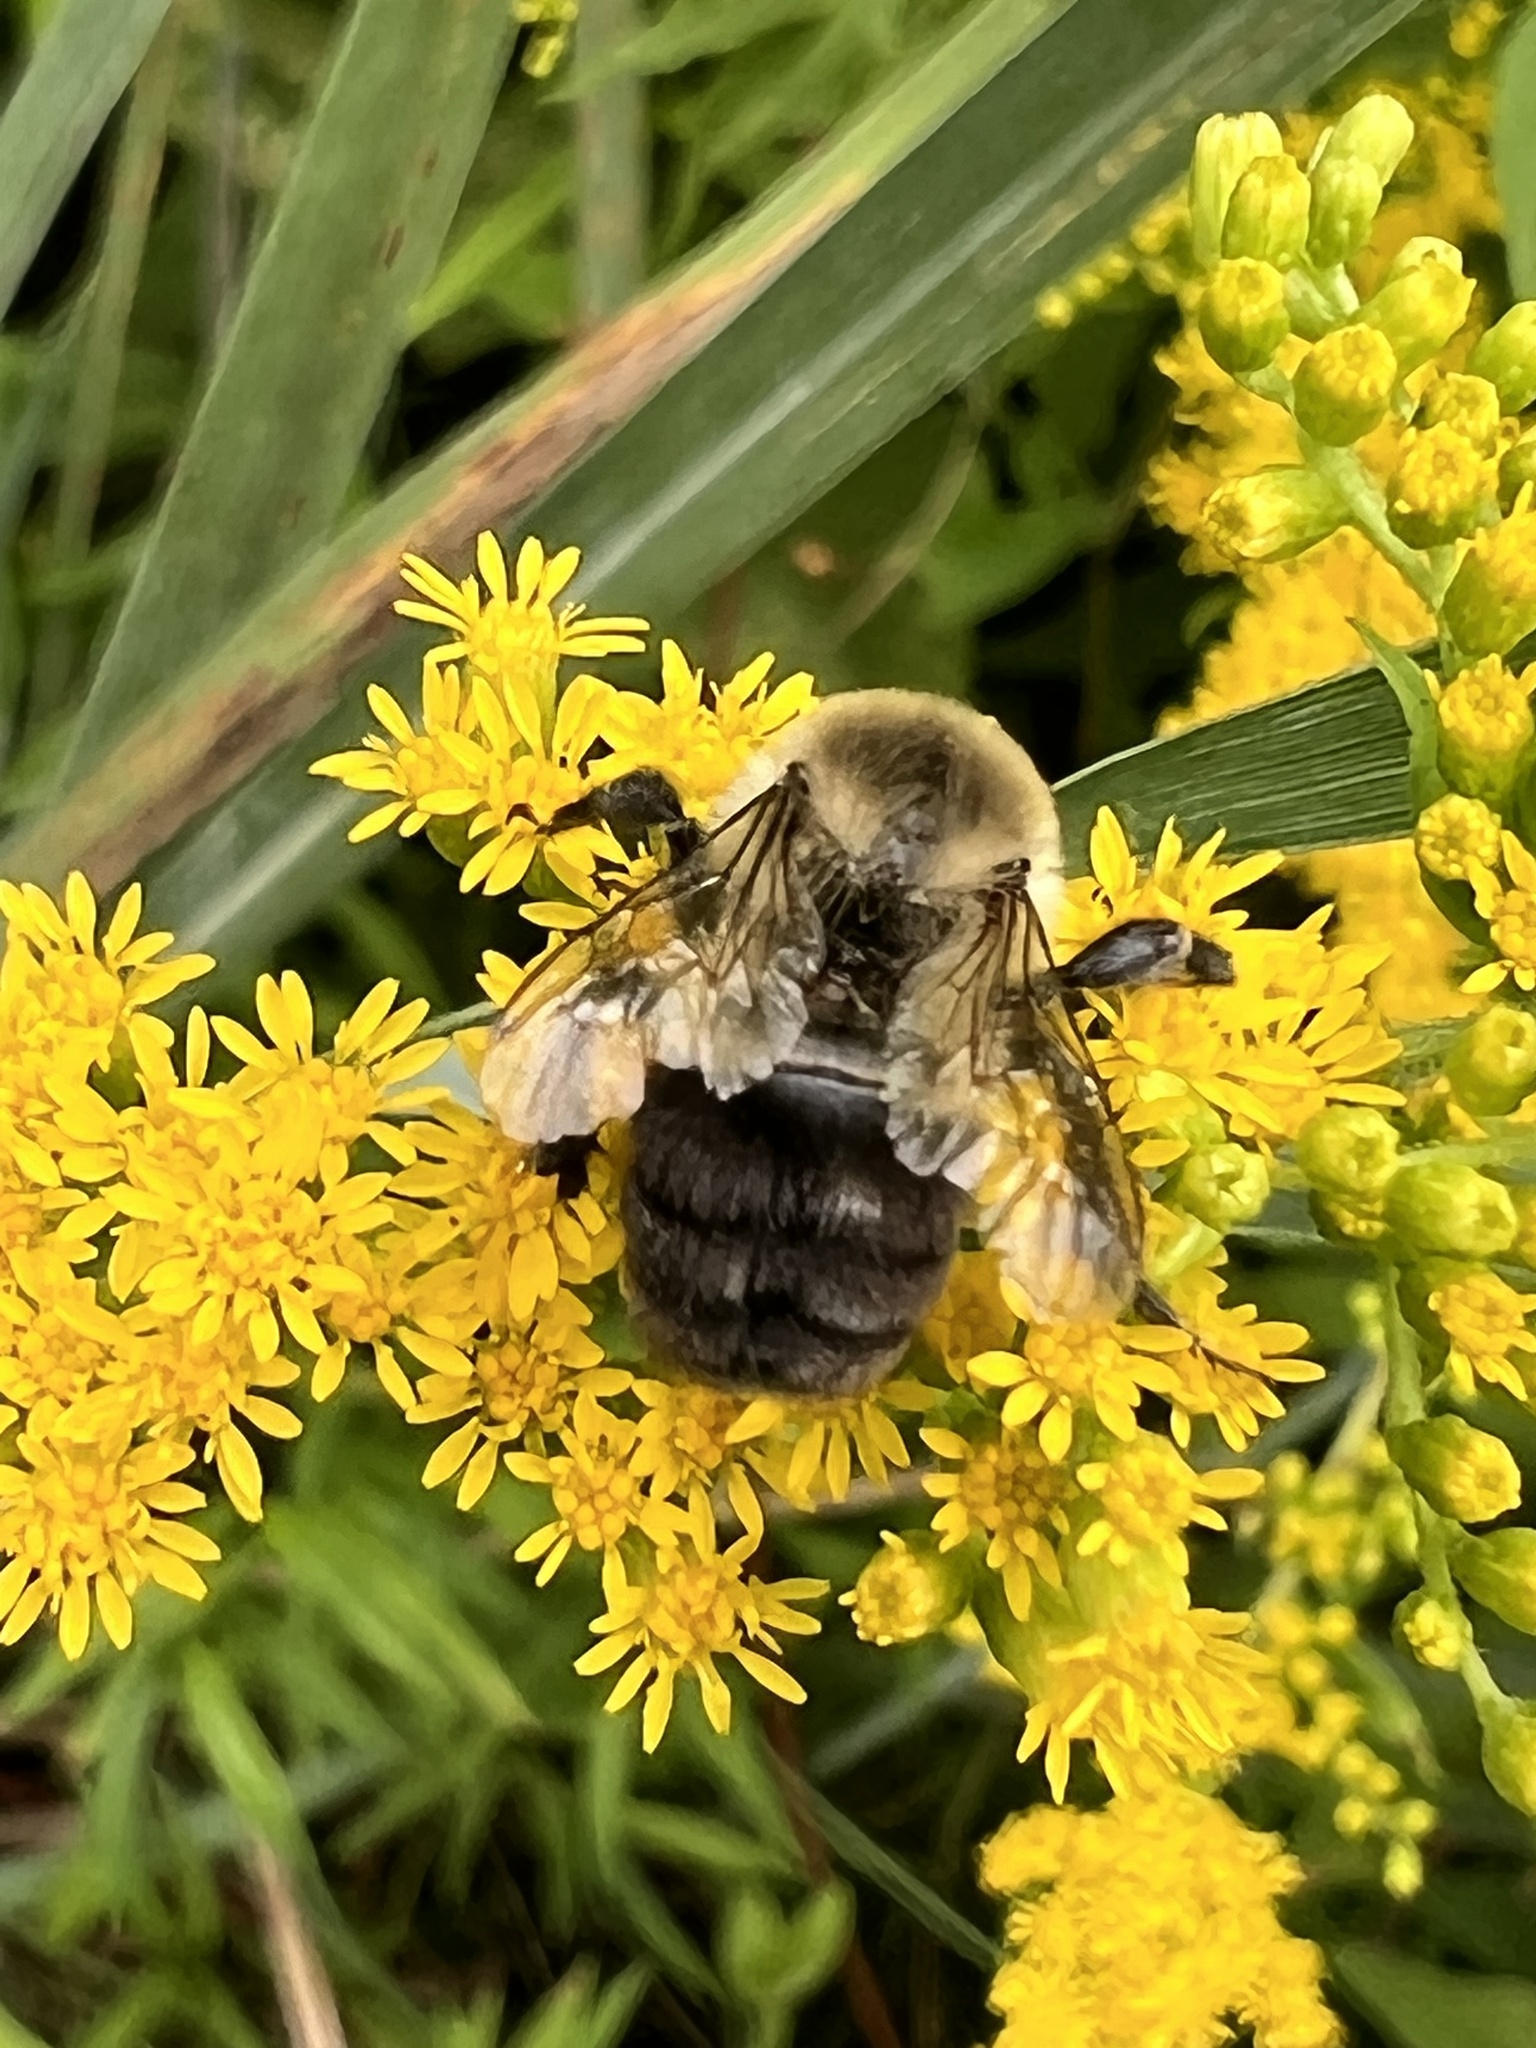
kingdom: Animalia
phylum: Arthropoda
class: Insecta
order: Hymenoptera
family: Apidae
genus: Bombus
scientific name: Bombus impatiens
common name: Common eastern bumble bee
